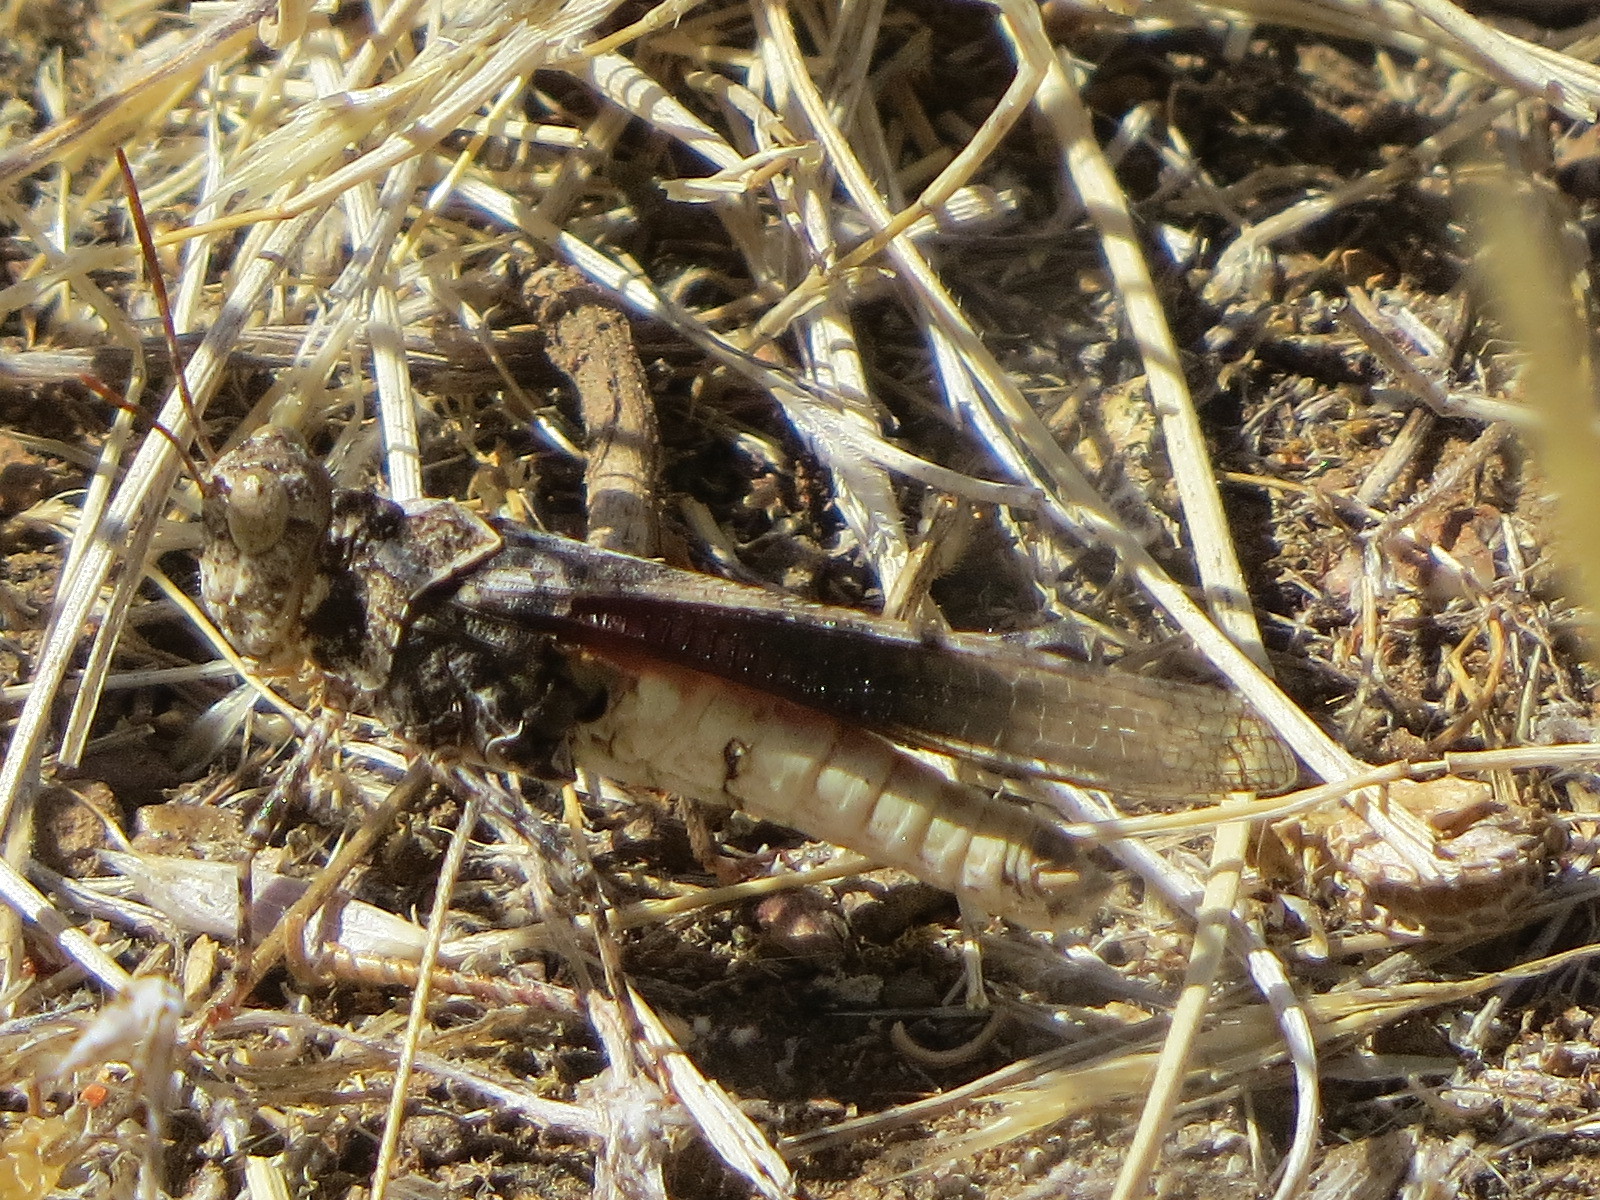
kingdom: Animalia
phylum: Arthropoda
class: Insecta
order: Orthoptera
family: Acrididae
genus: Dissosteira
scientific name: Dissosteira pictipennis
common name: California rose-winged grasshopper
